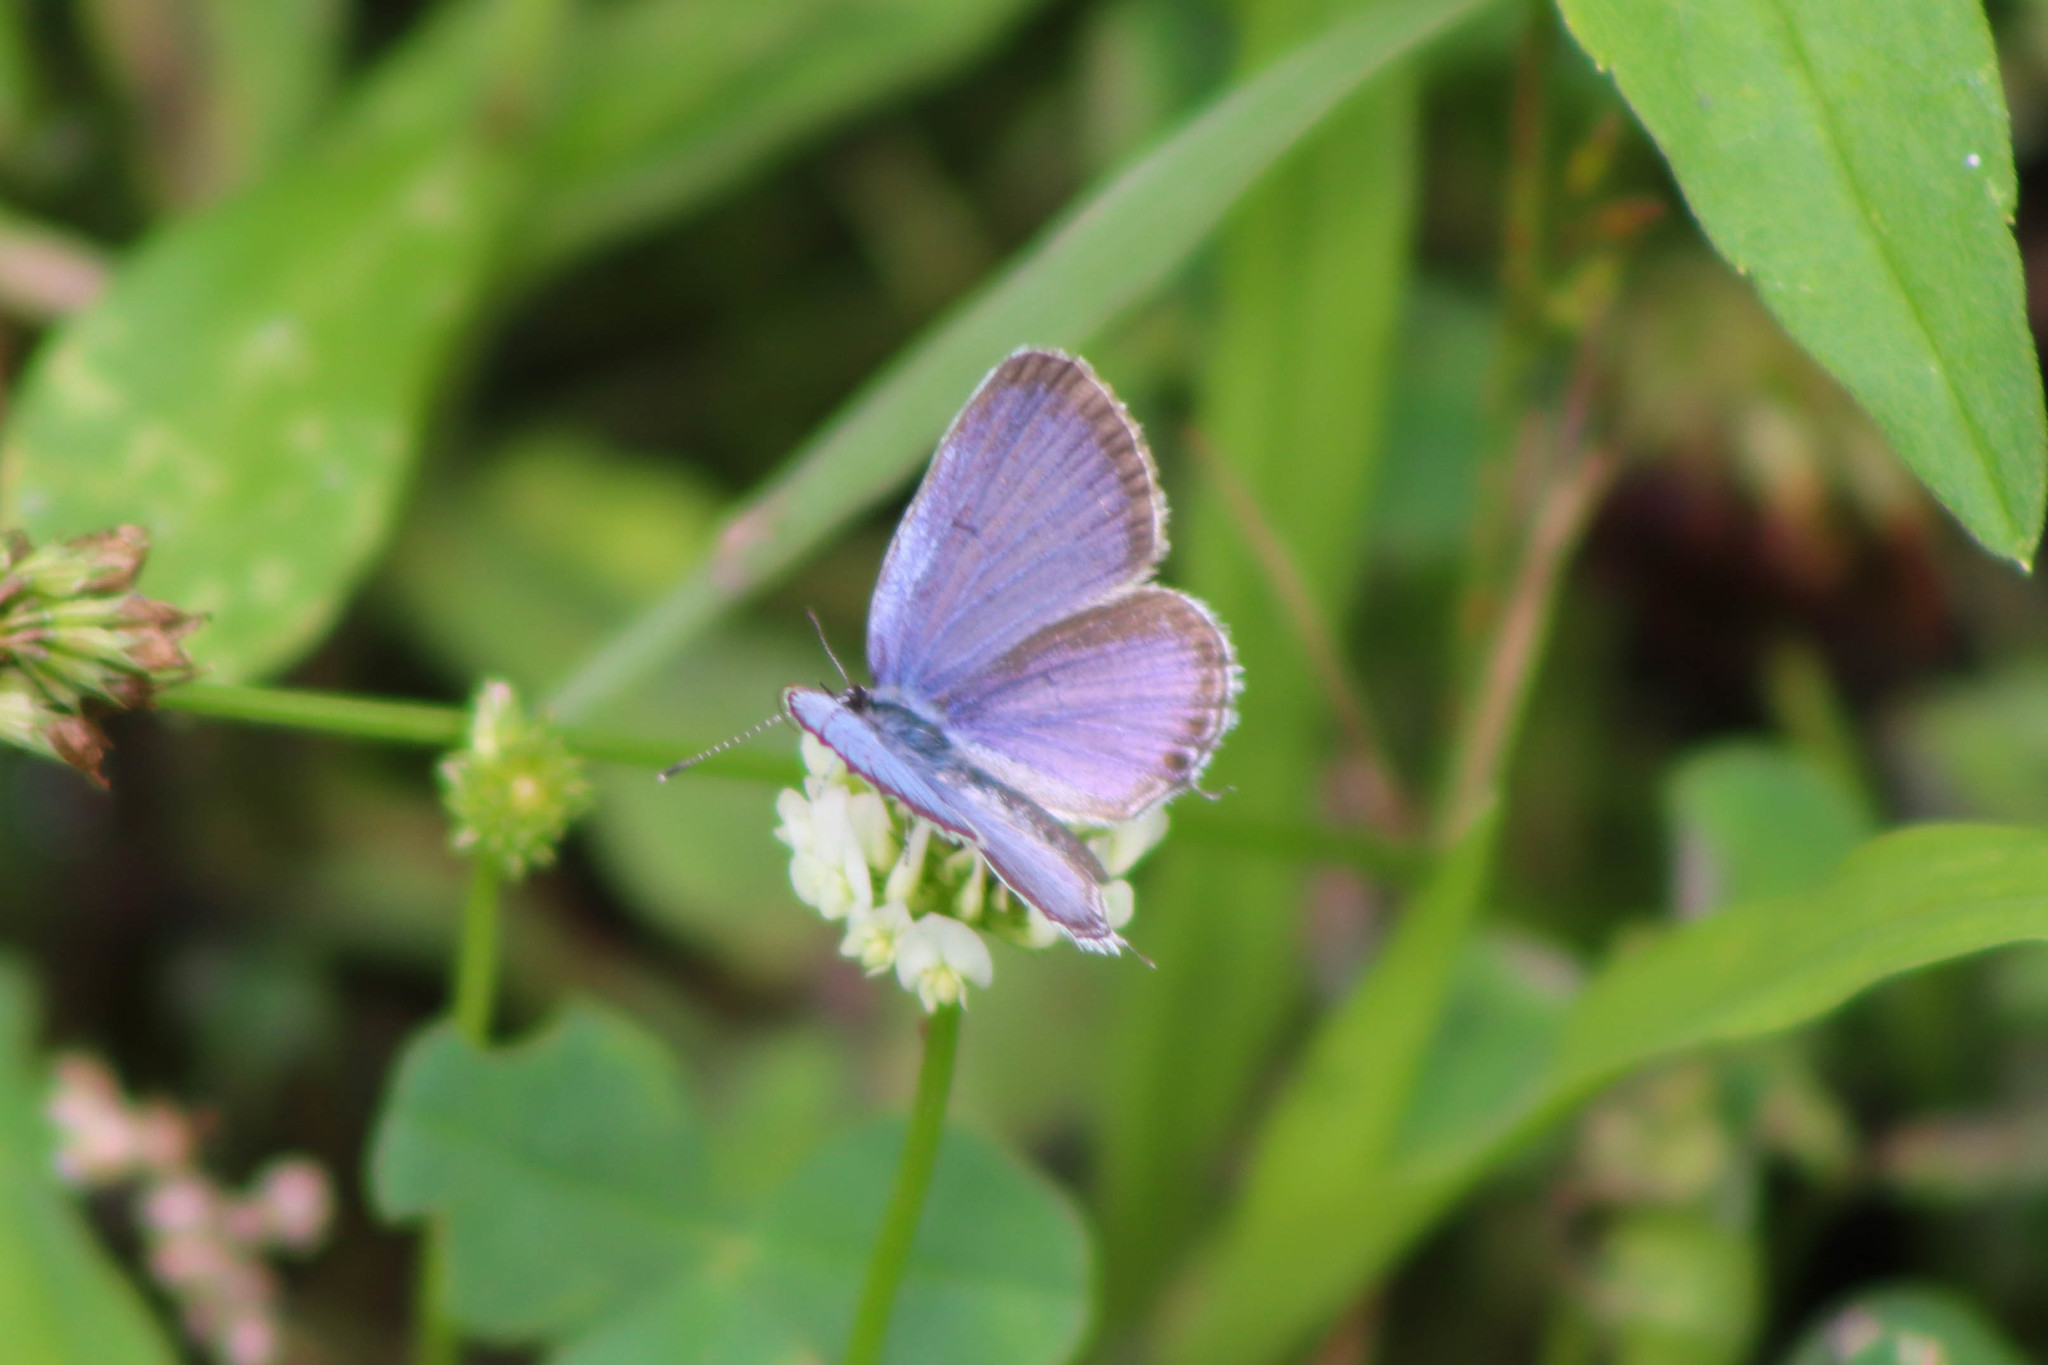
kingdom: Animalia
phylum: Arthropoda
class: Insecta
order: Lepidoptera
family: Lycaenidae
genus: Elkalyce
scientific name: Elkalyce comyntas
